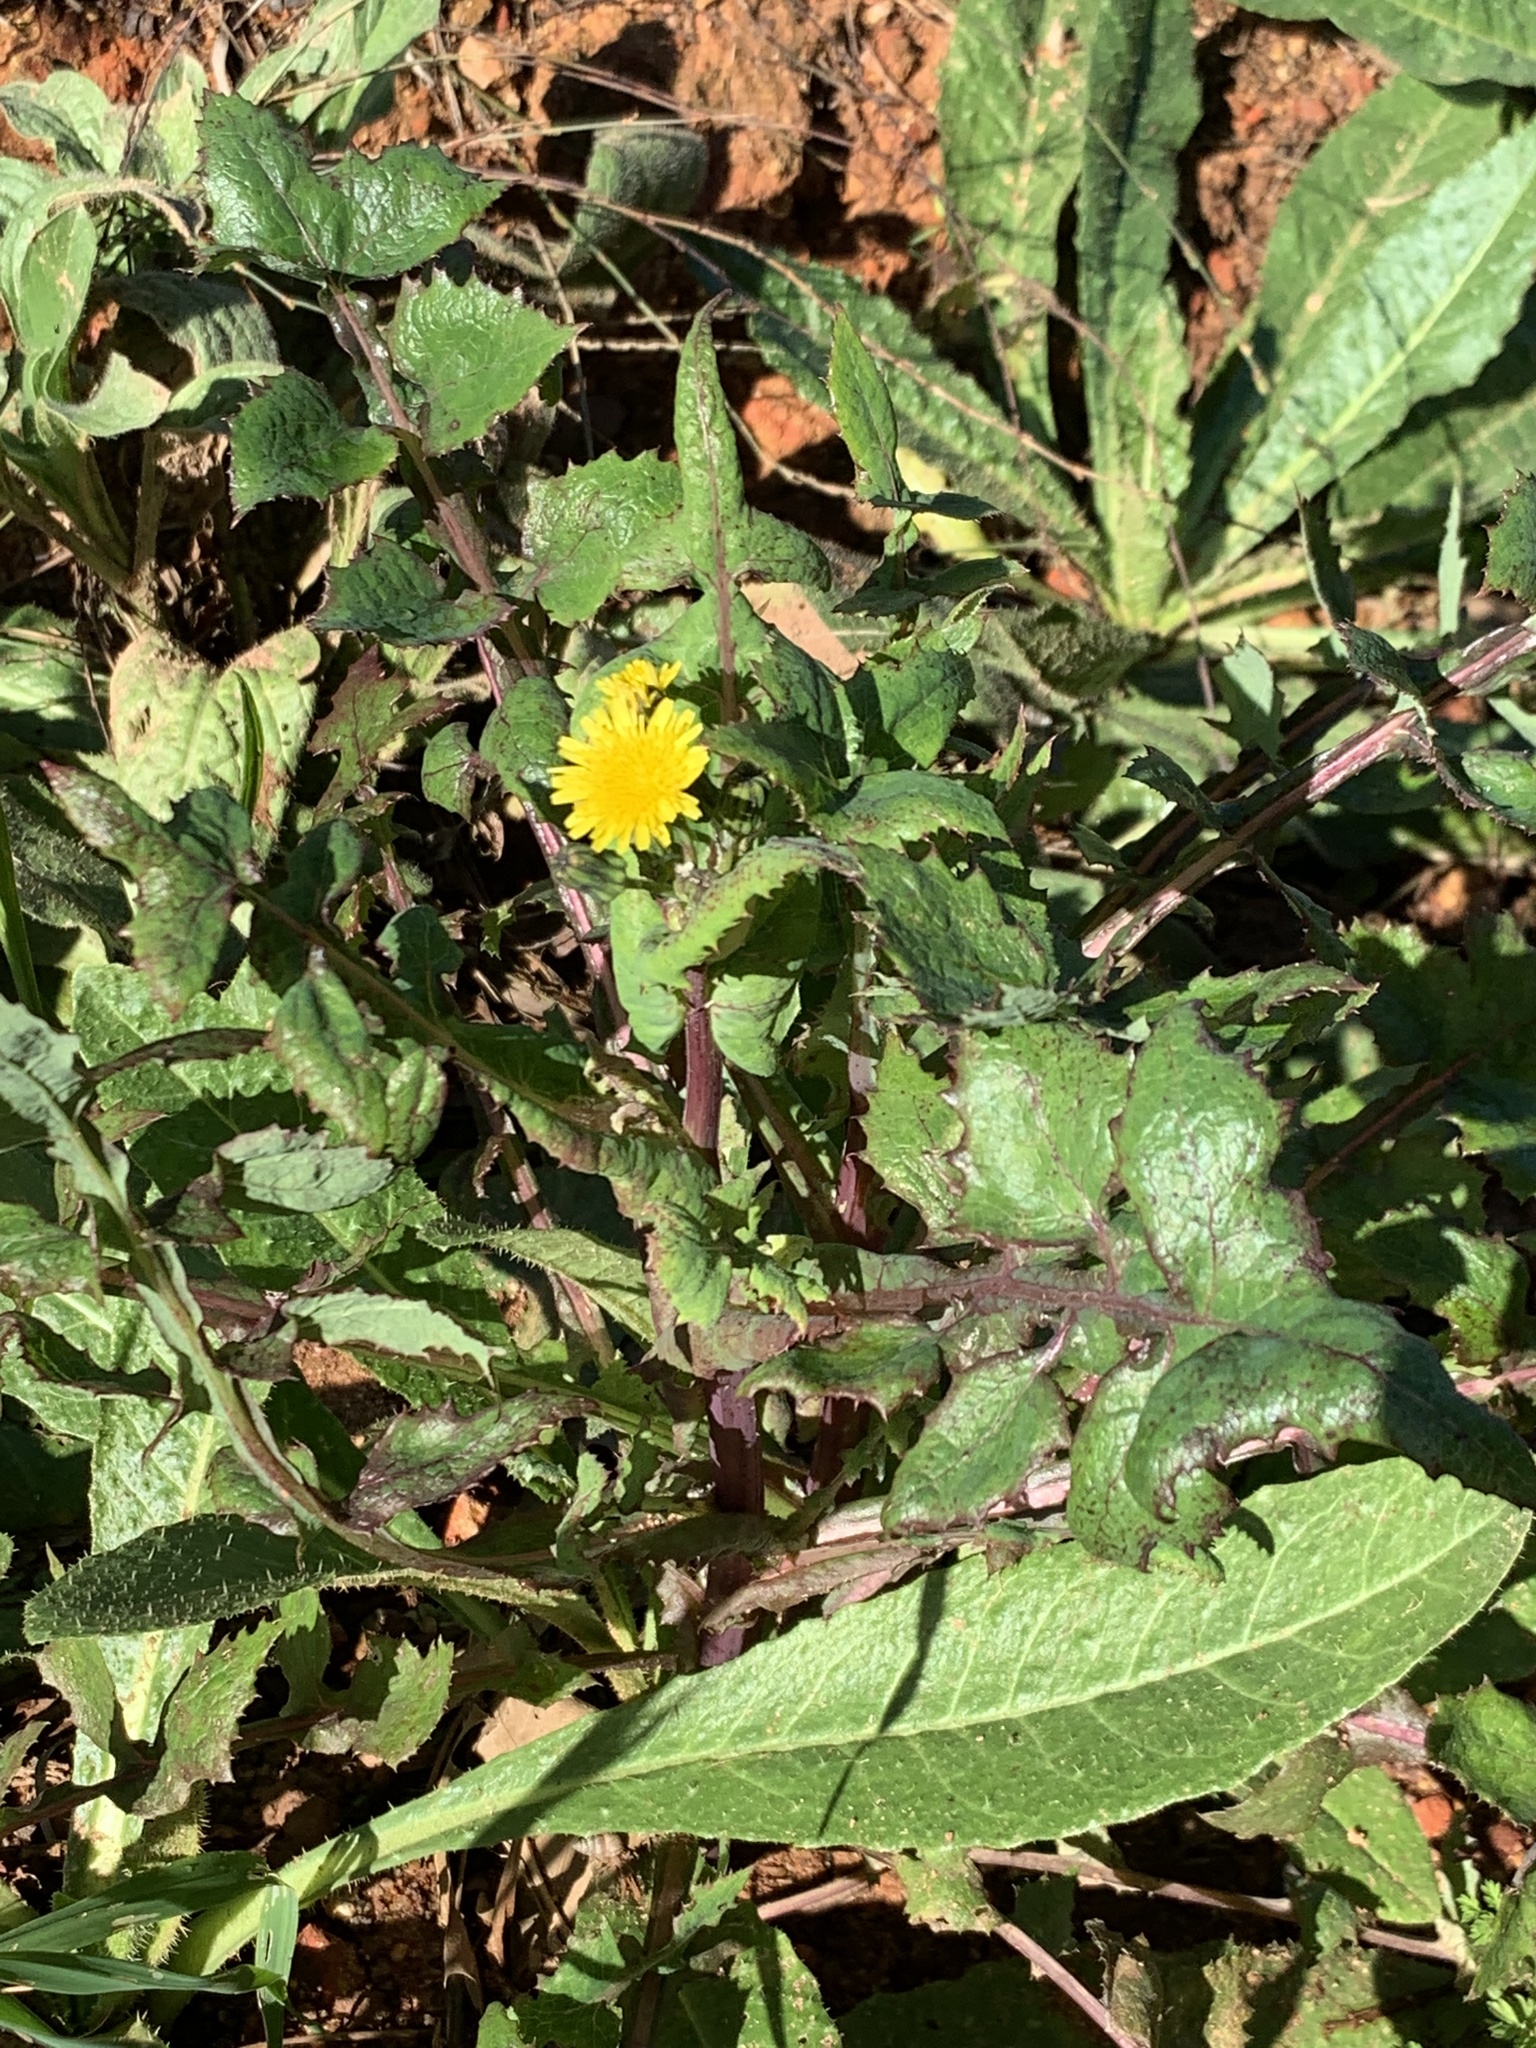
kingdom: Plantae
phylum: Tracheophyta
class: Magnoliopsida
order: Asterales
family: Asteraceae
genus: Sonchus
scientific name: Sonchus oleraceus
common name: Common sowthistle
